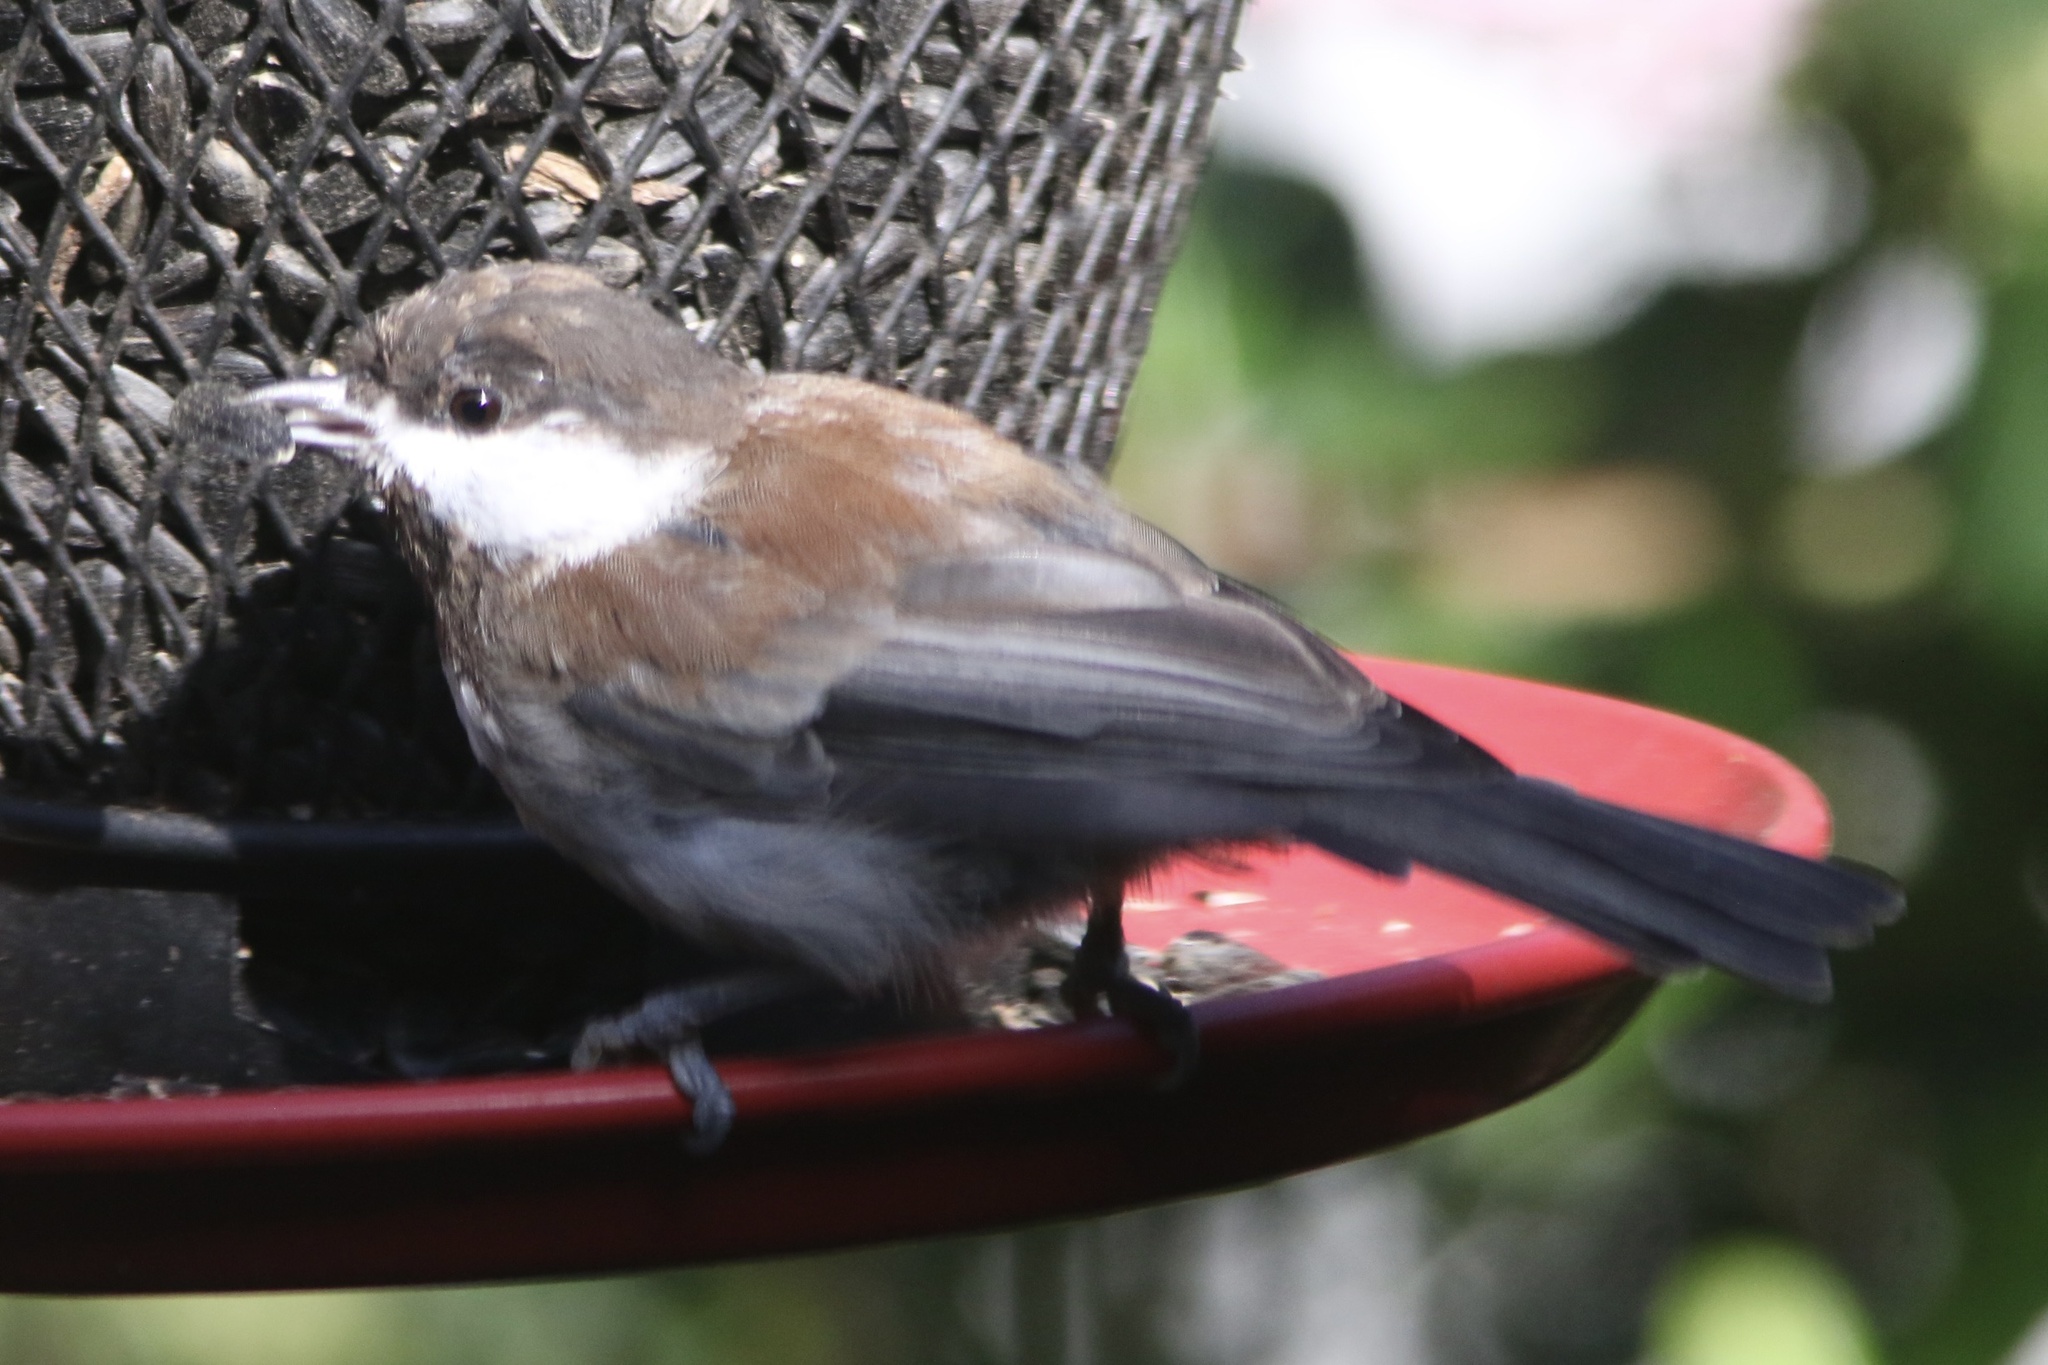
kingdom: Animalia
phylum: Chordata
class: Aves
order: Passeriformes
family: Paridae
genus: Poecile
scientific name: Poecile rufescens
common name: Chestnut-backed chickadee
